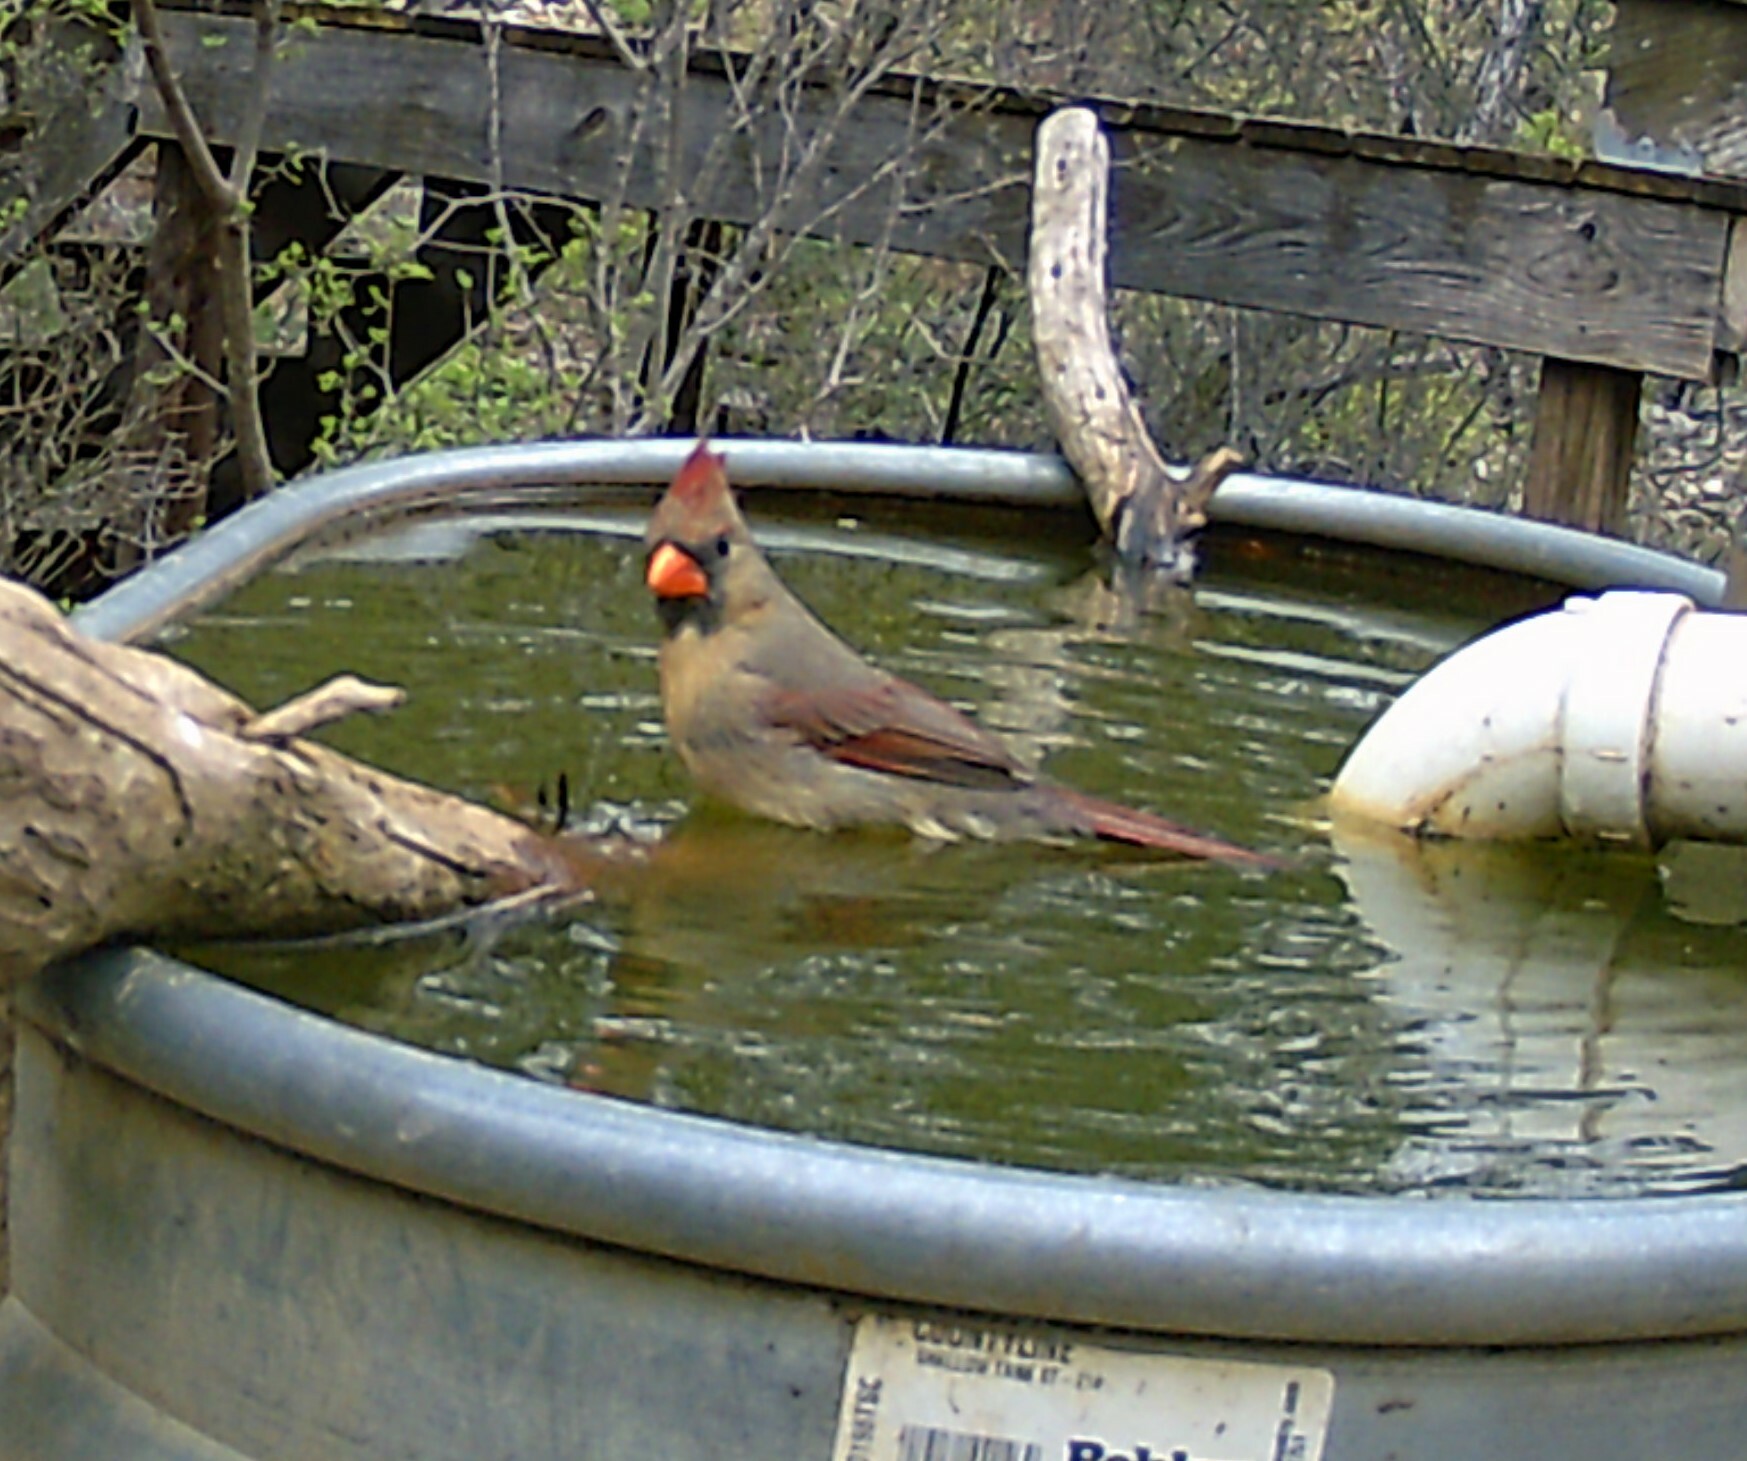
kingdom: Animalia
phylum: Chordata
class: Aves
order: Passeriformes
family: Cardinalidae
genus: Cardinalis
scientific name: Cardinalis cardinalis
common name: Northern cardinal
